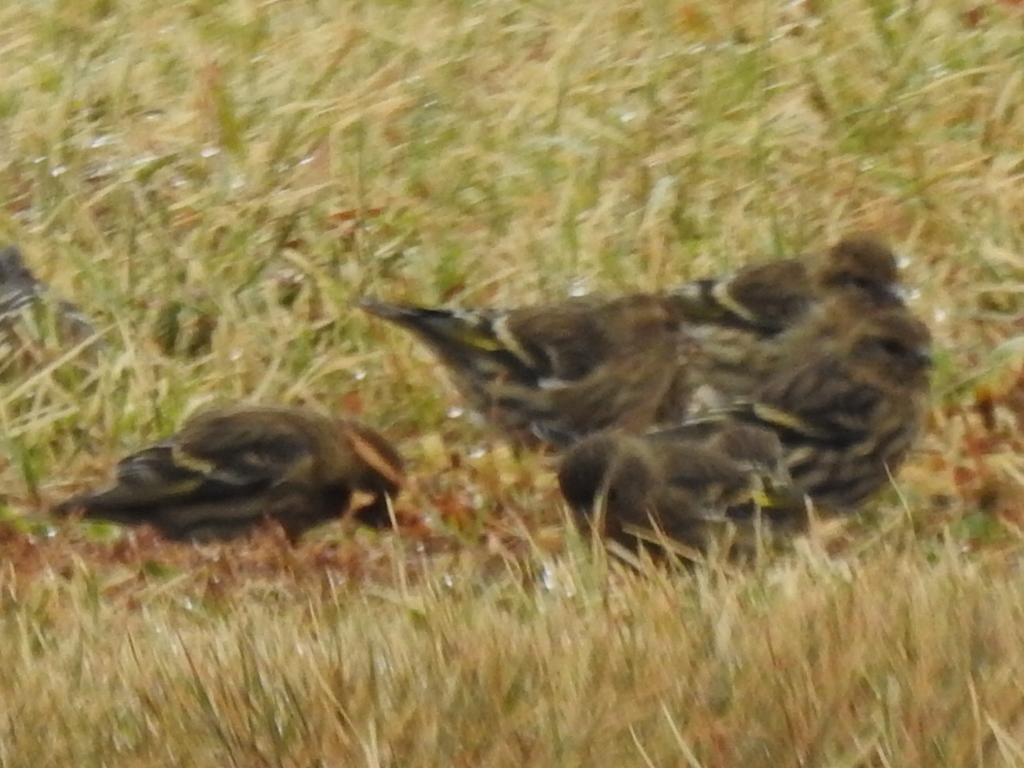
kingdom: Animalia
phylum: Chordata
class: Aves
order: Passeriformes
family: Fringillidae
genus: Spinus
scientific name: Spinus pinus
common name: Pine siskin
